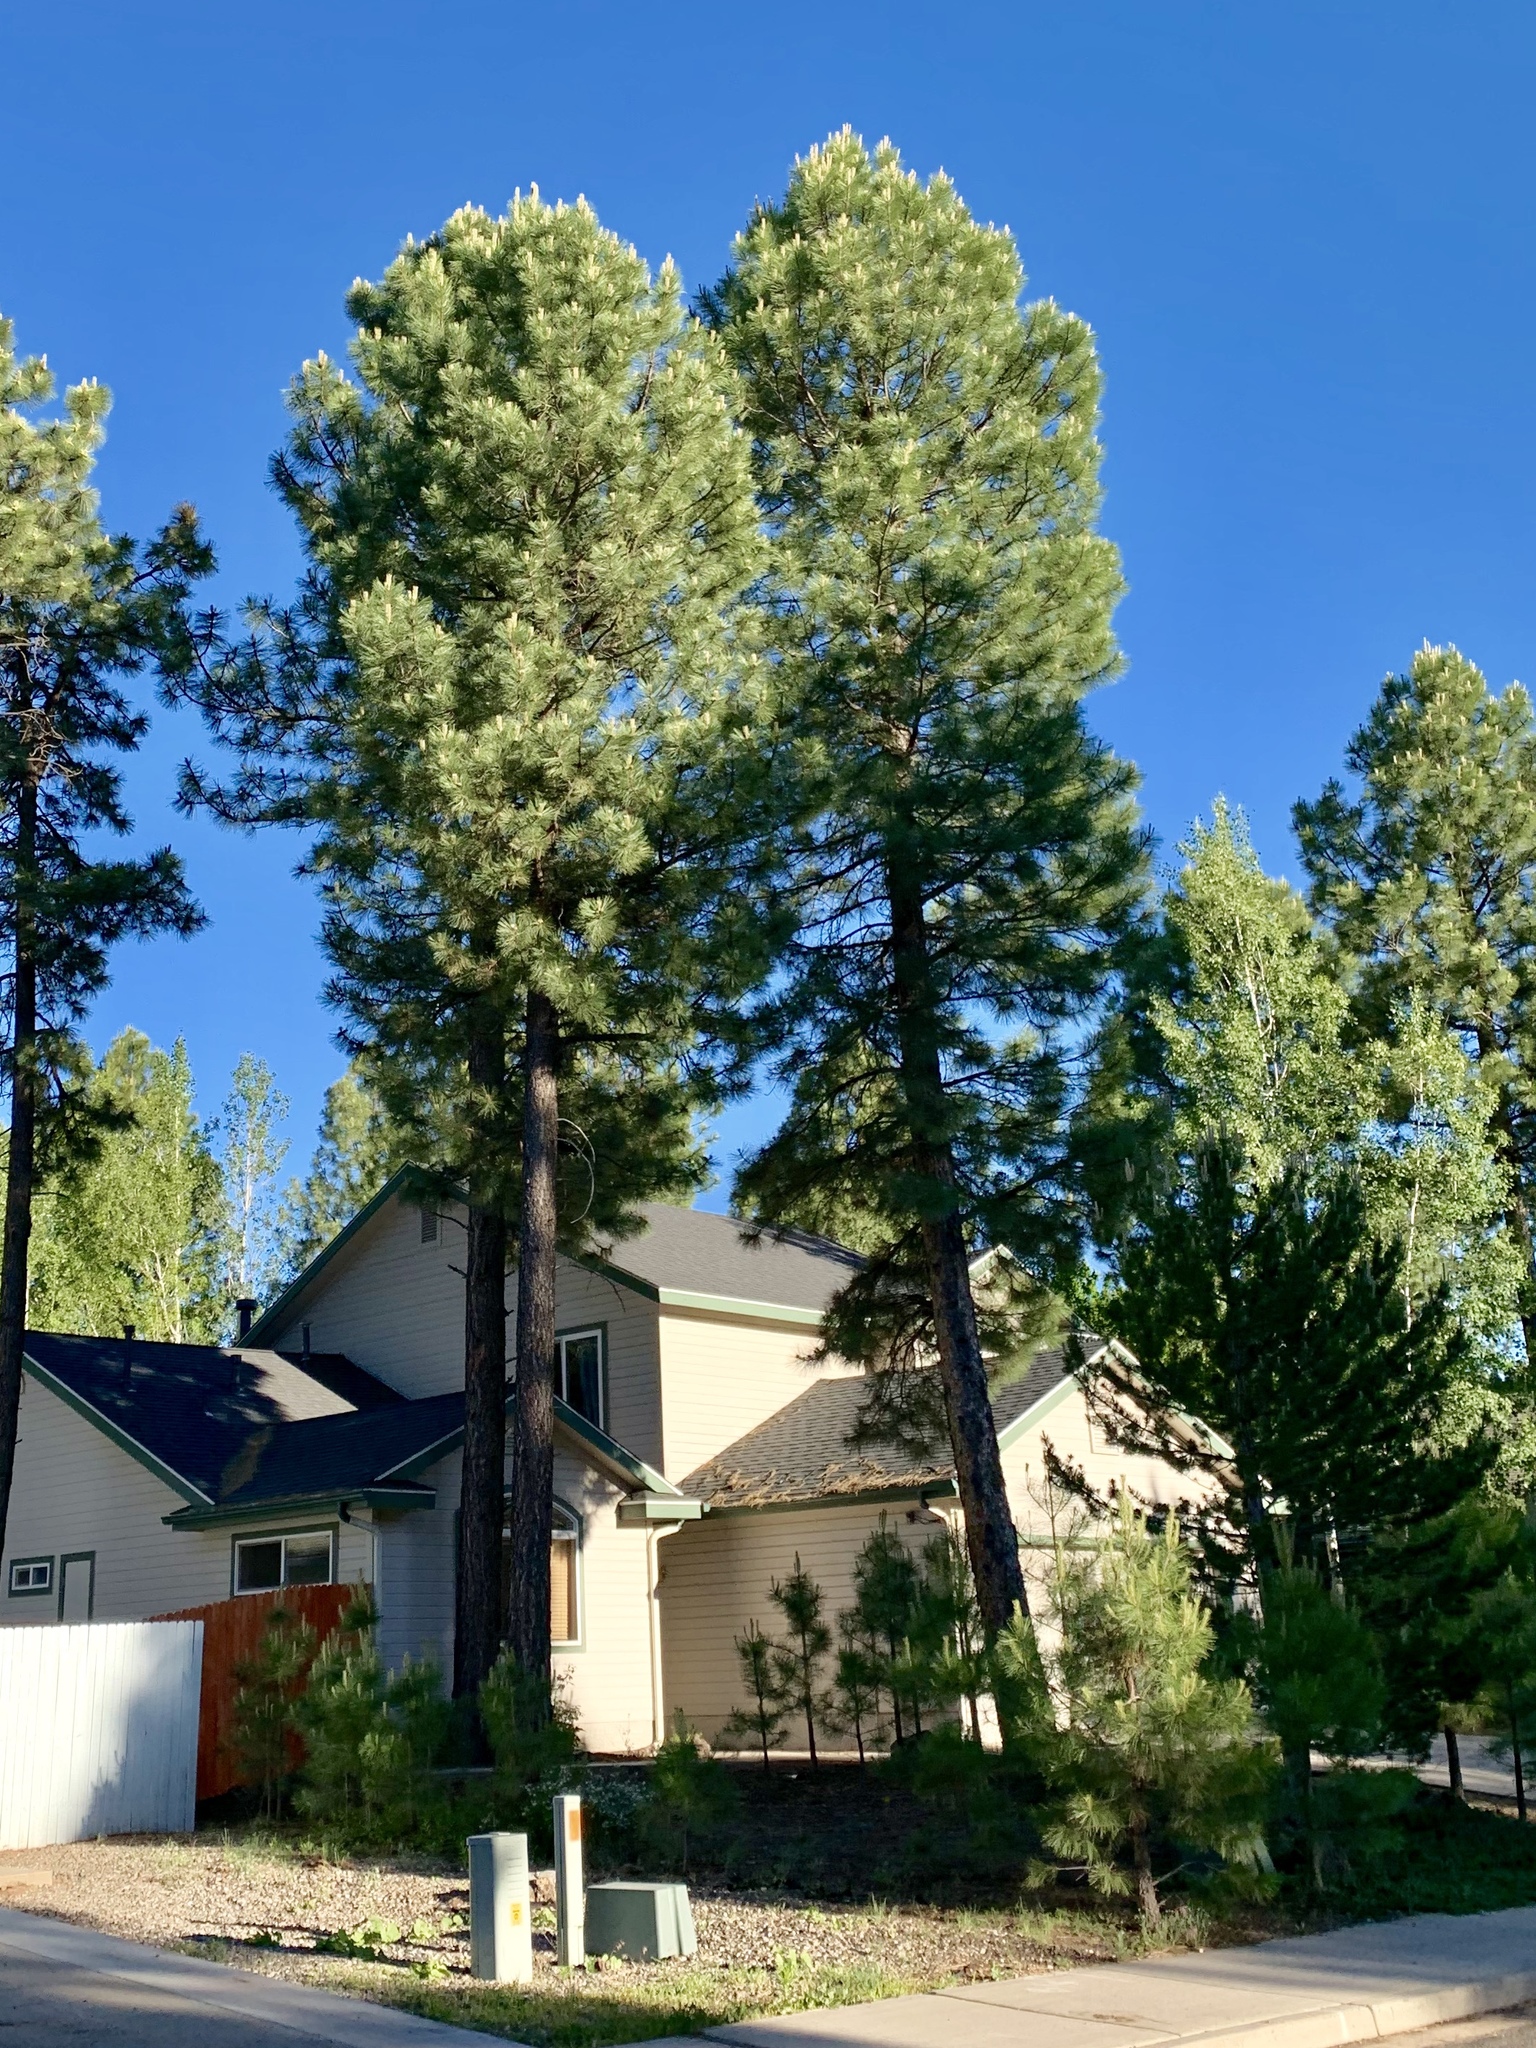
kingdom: Plantae
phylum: Tracheophyta
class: Pinopsida
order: Pinales
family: Pinaceae
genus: Pinus
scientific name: Pinus ponderosa
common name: Western yellow-pine
